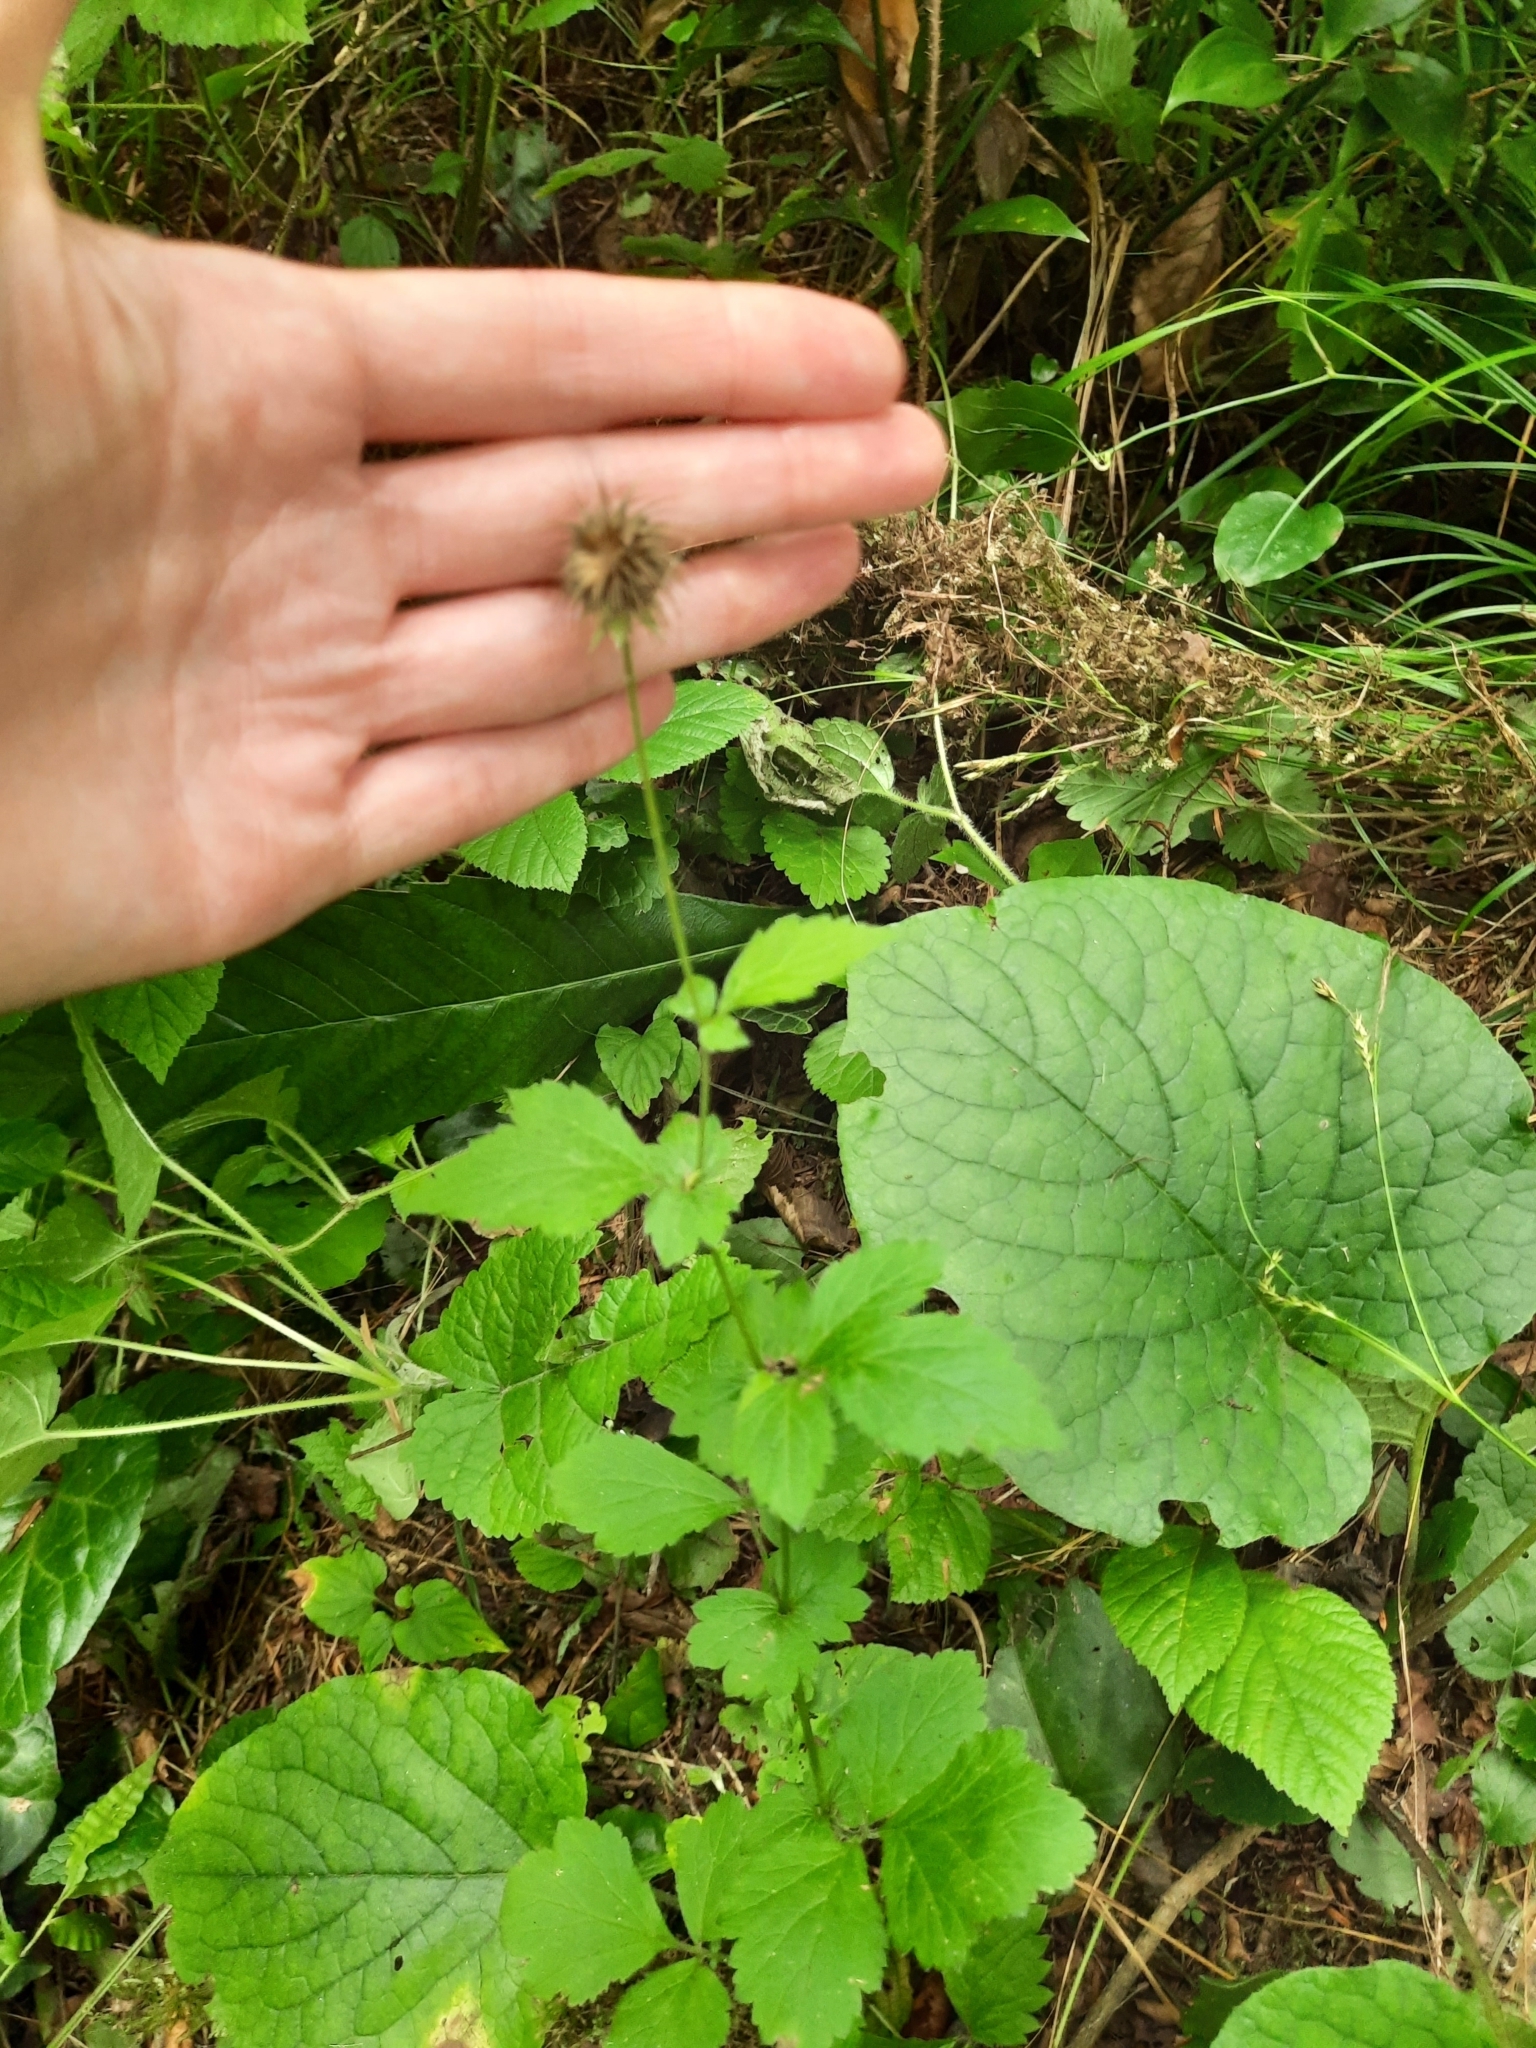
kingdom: Plantae
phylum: Tracheophyta
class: Magnoliopsida
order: Rosales
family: Rosaceae
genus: Geum
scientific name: Geum urbanum
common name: Wood avens
